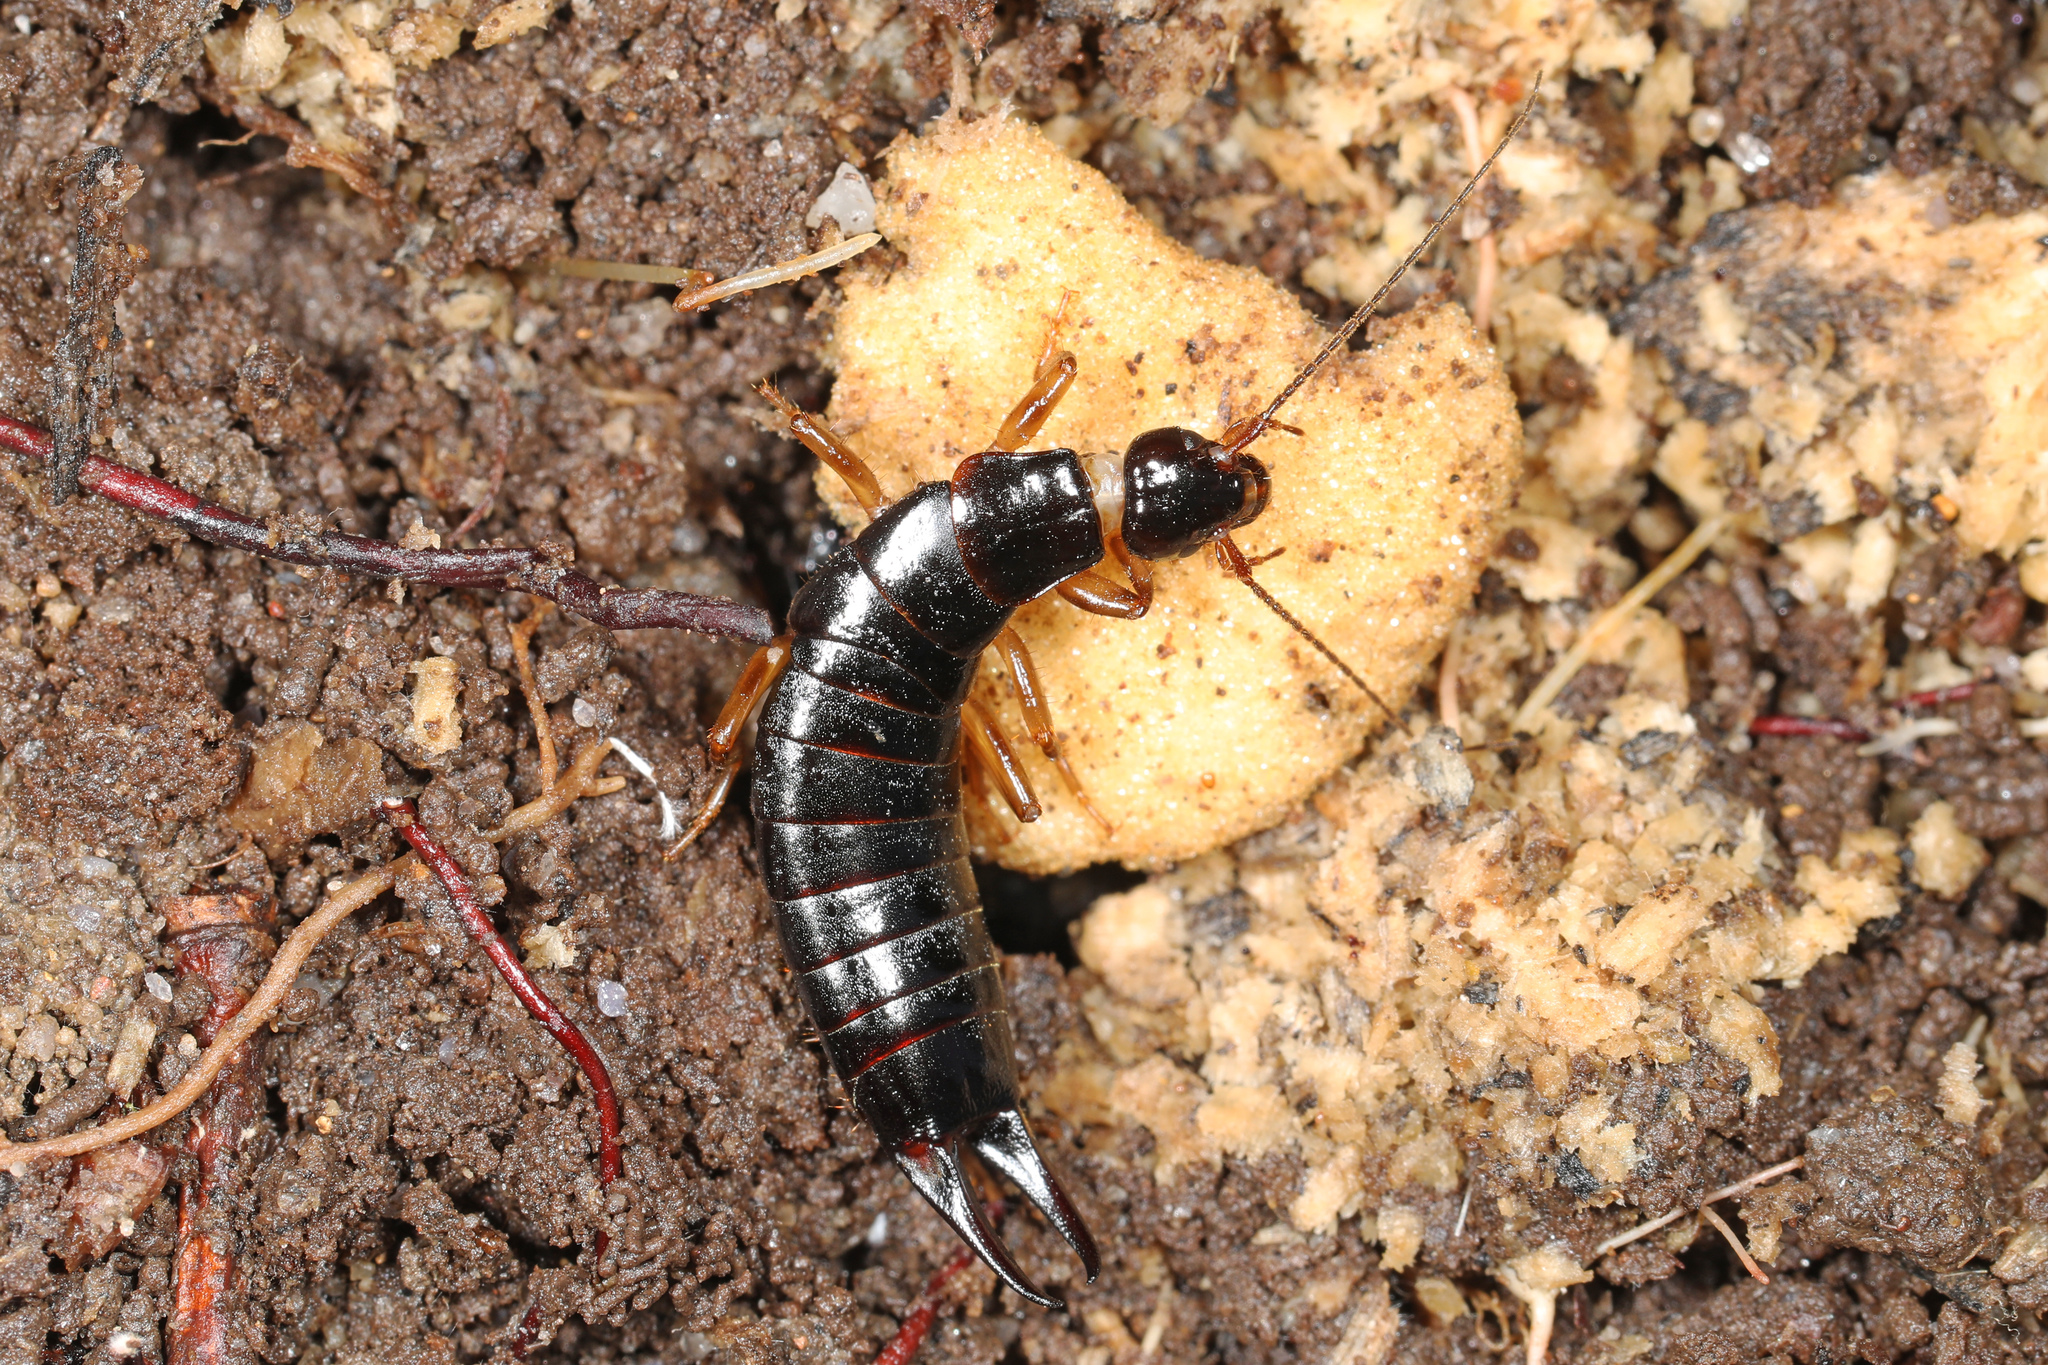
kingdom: Animalia
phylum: Arthropoda
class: Insecta
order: Dermaptera
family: Anisolabididae
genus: Anisolabis
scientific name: Anisolabis maritima
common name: Maritime earwig
